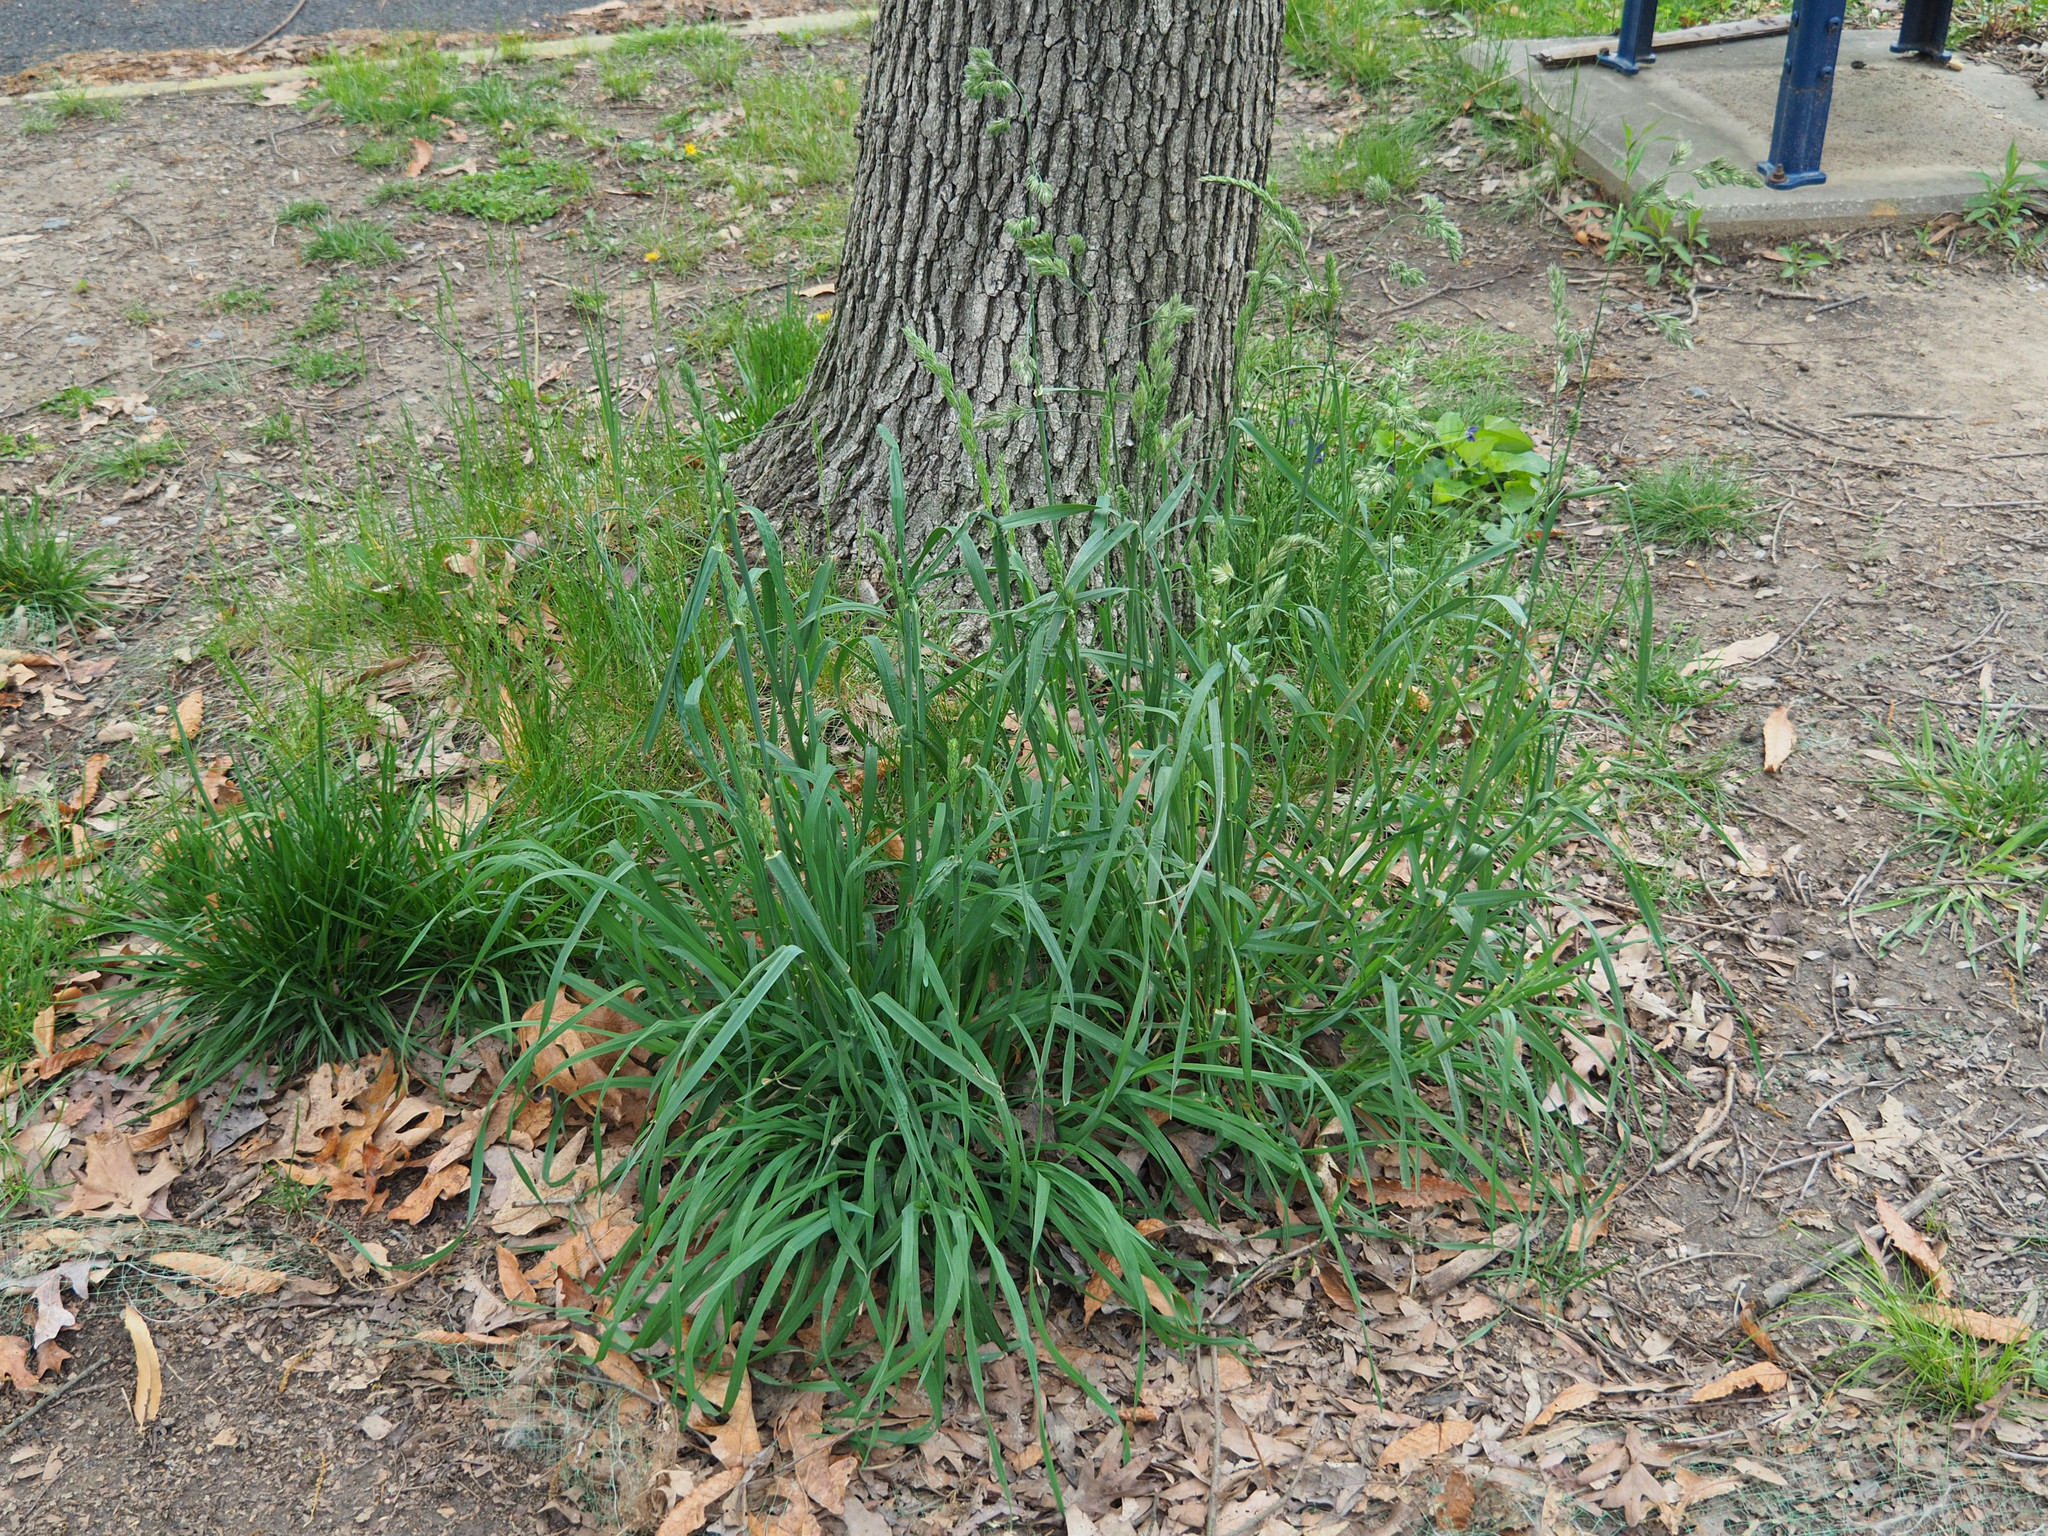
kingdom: Plantae
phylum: Tracheophyta
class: Liliopsida
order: Poales
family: Poaceae
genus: Dactylis
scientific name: Dactylis glomerata
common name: Orchardgrass
